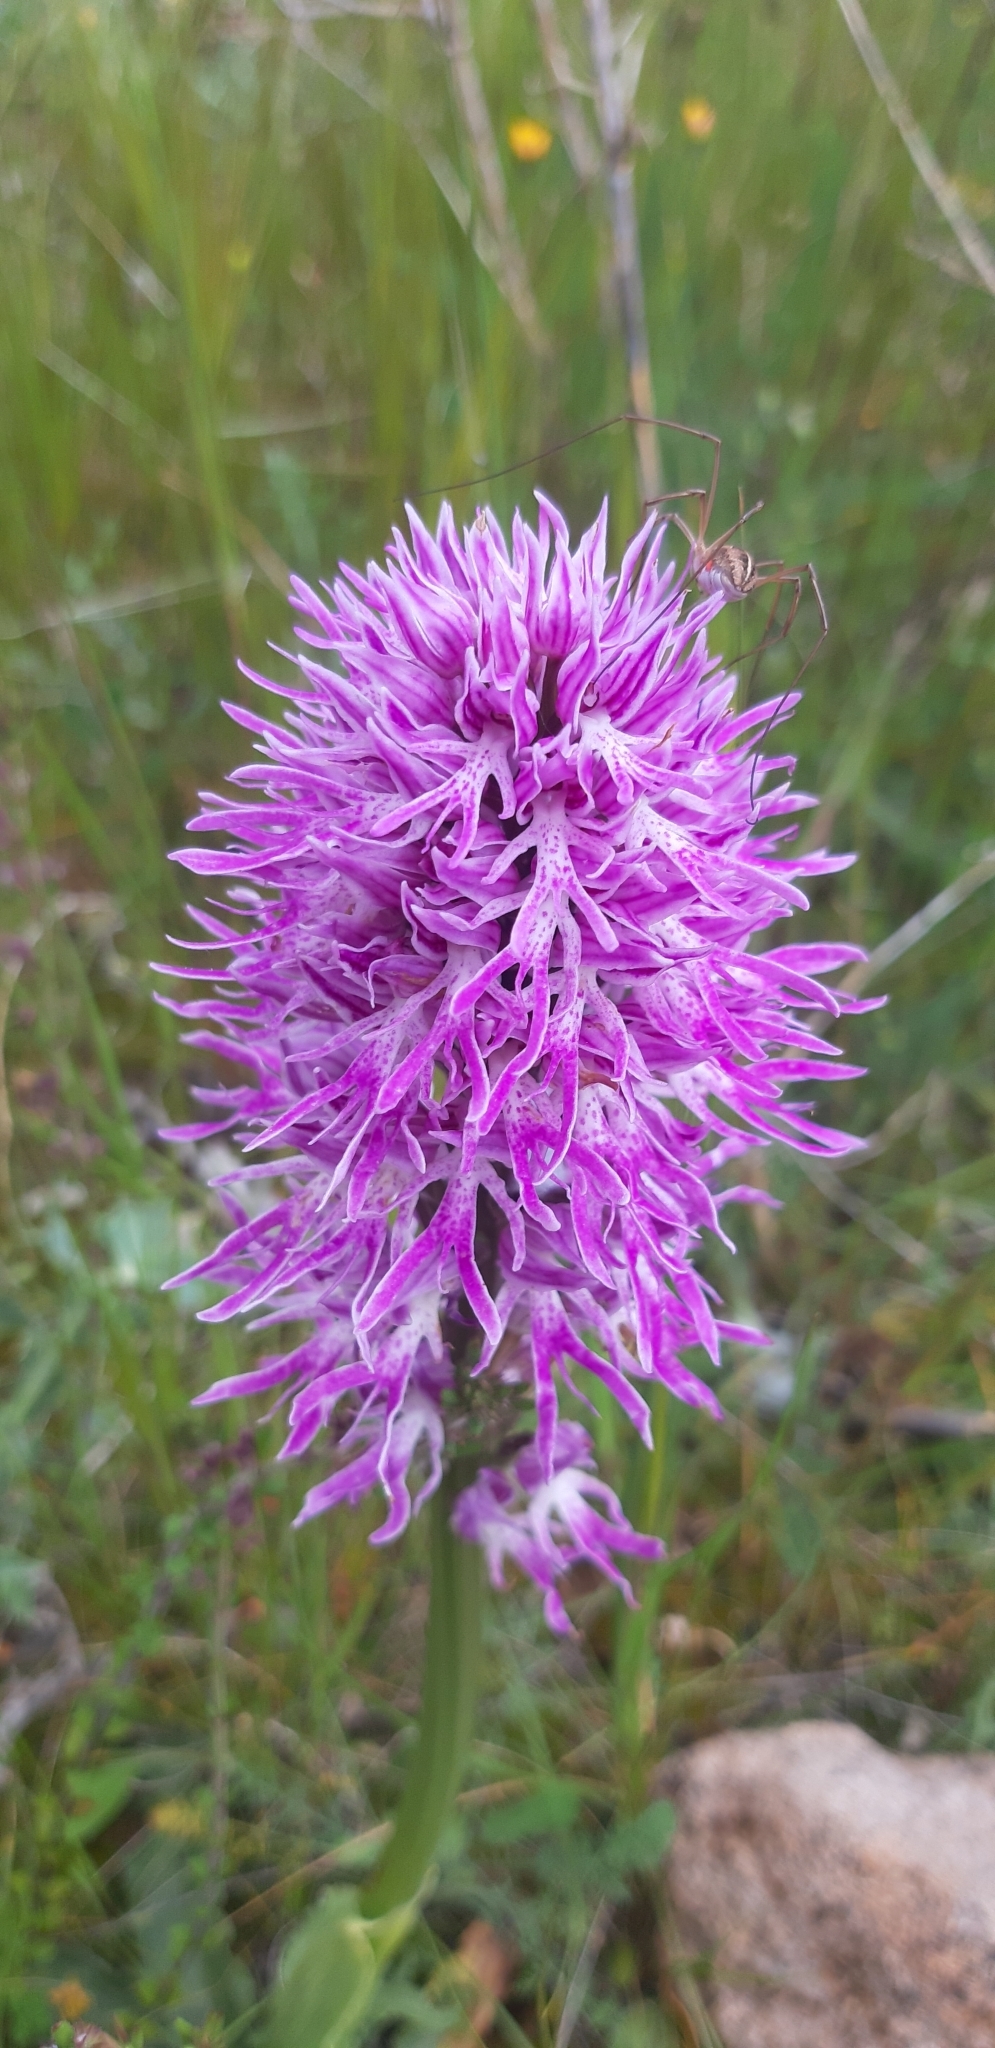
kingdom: Plantae
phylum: Tracheophyta
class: Liliopsida
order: Asparagales
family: Orchidaceae
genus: Orchis
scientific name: Orchis italica
